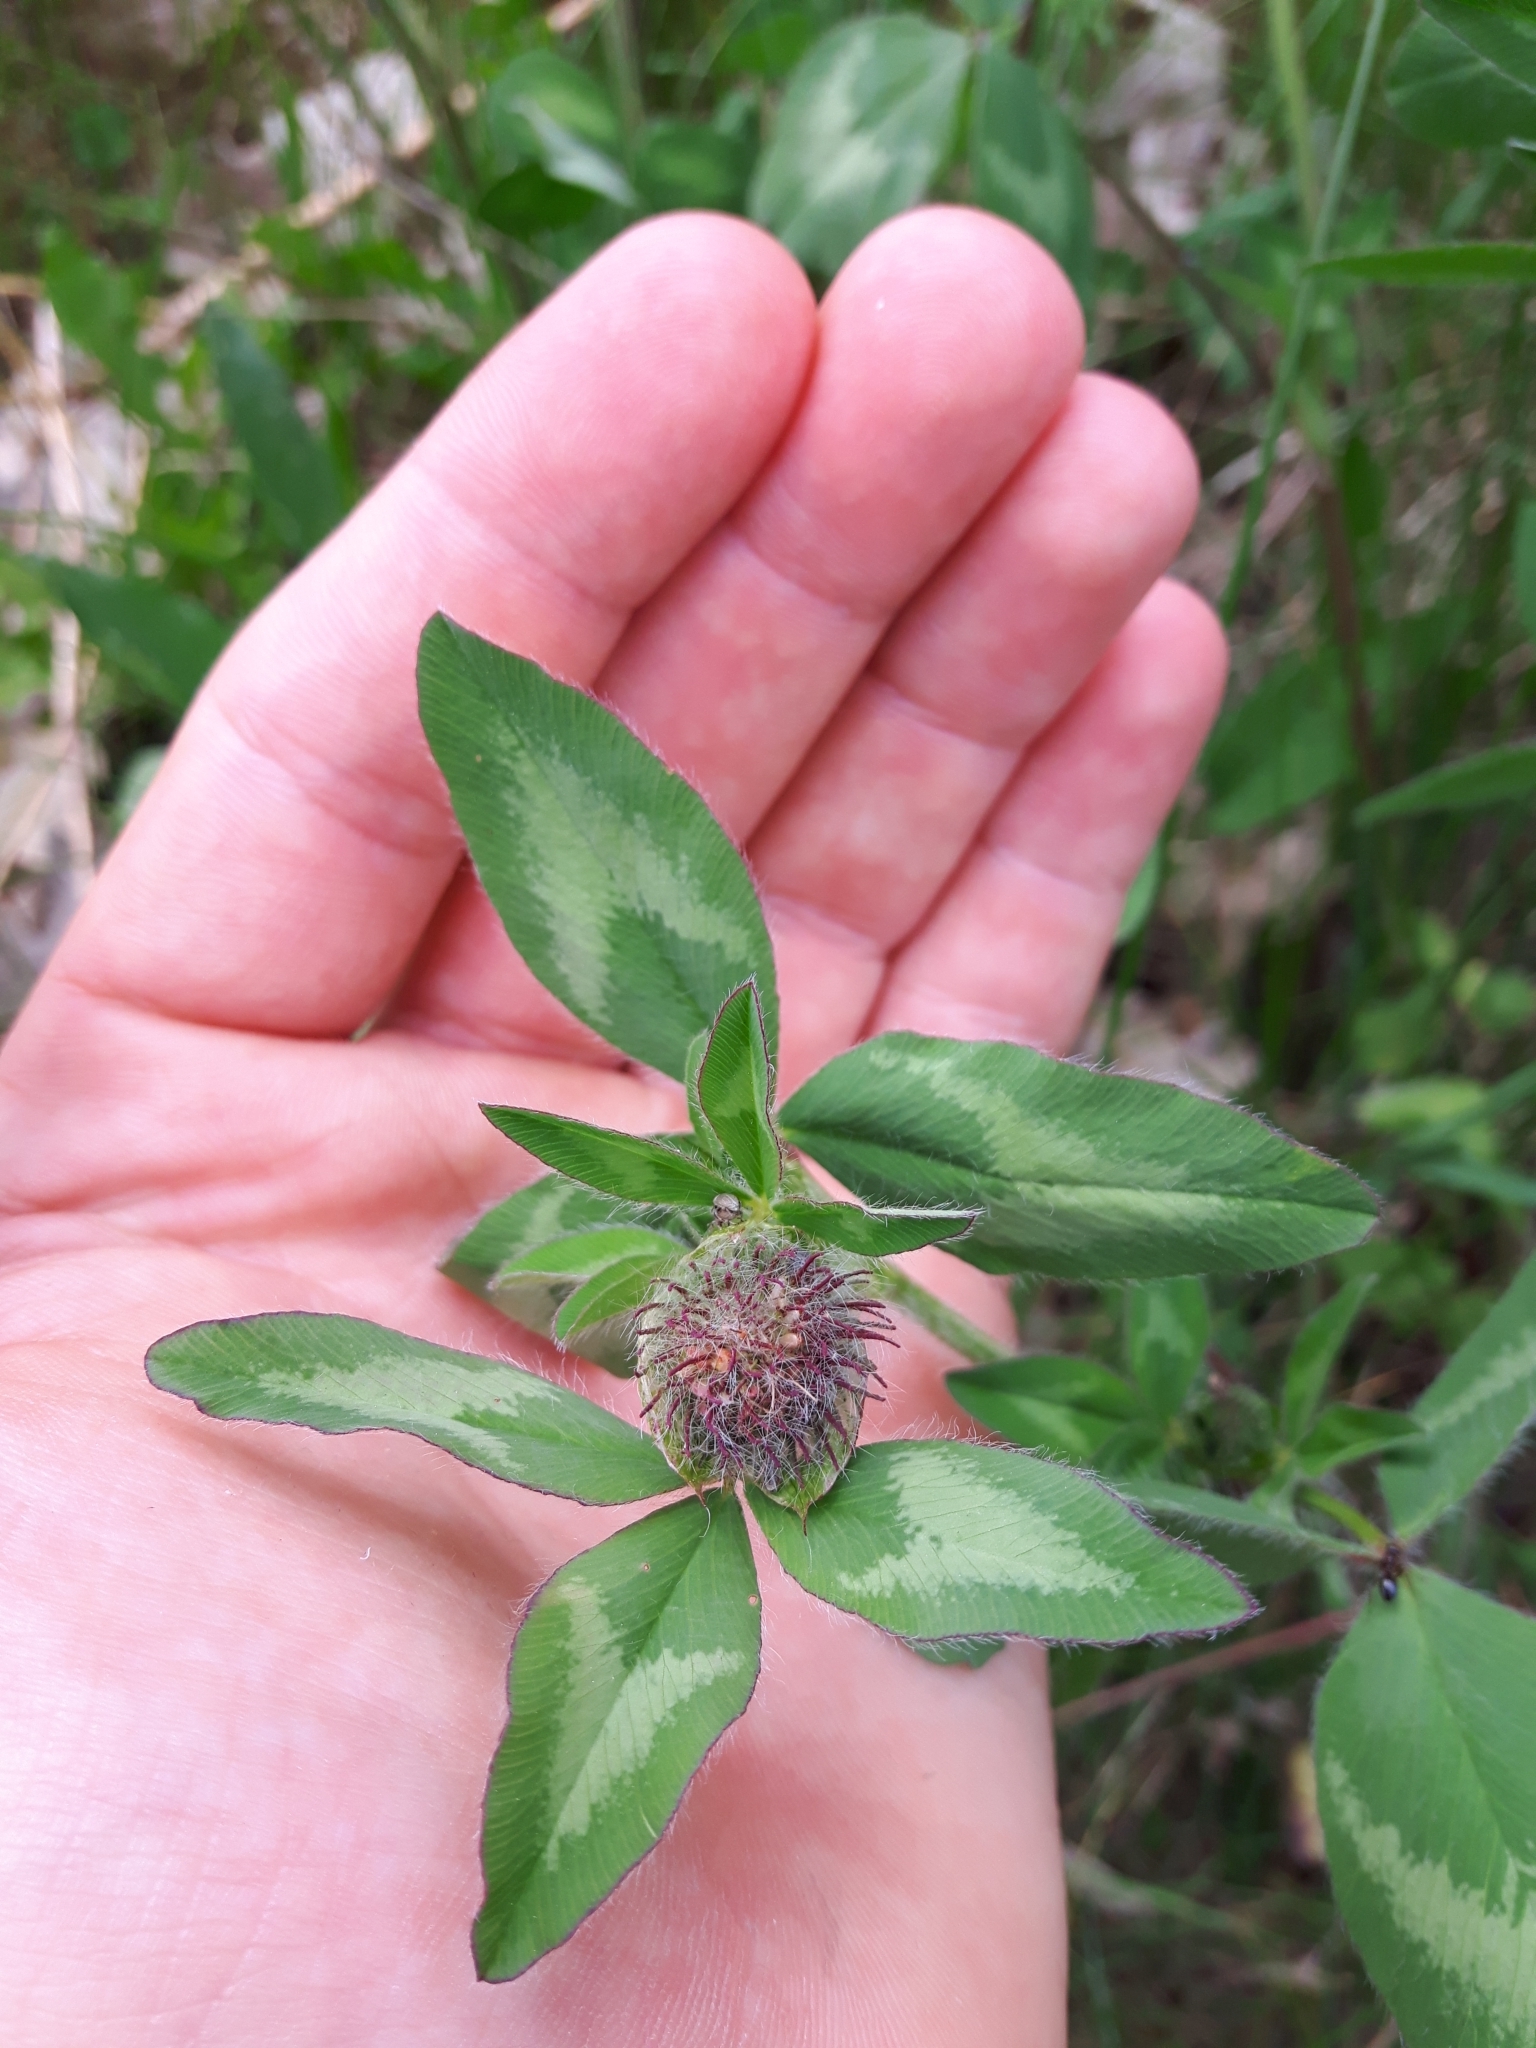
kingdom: Plantae
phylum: Tracheophyta
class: Magnoliopsida
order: Fabales
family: Fabaceae
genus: Trifolium
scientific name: Trifolium pratense
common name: Red clover
